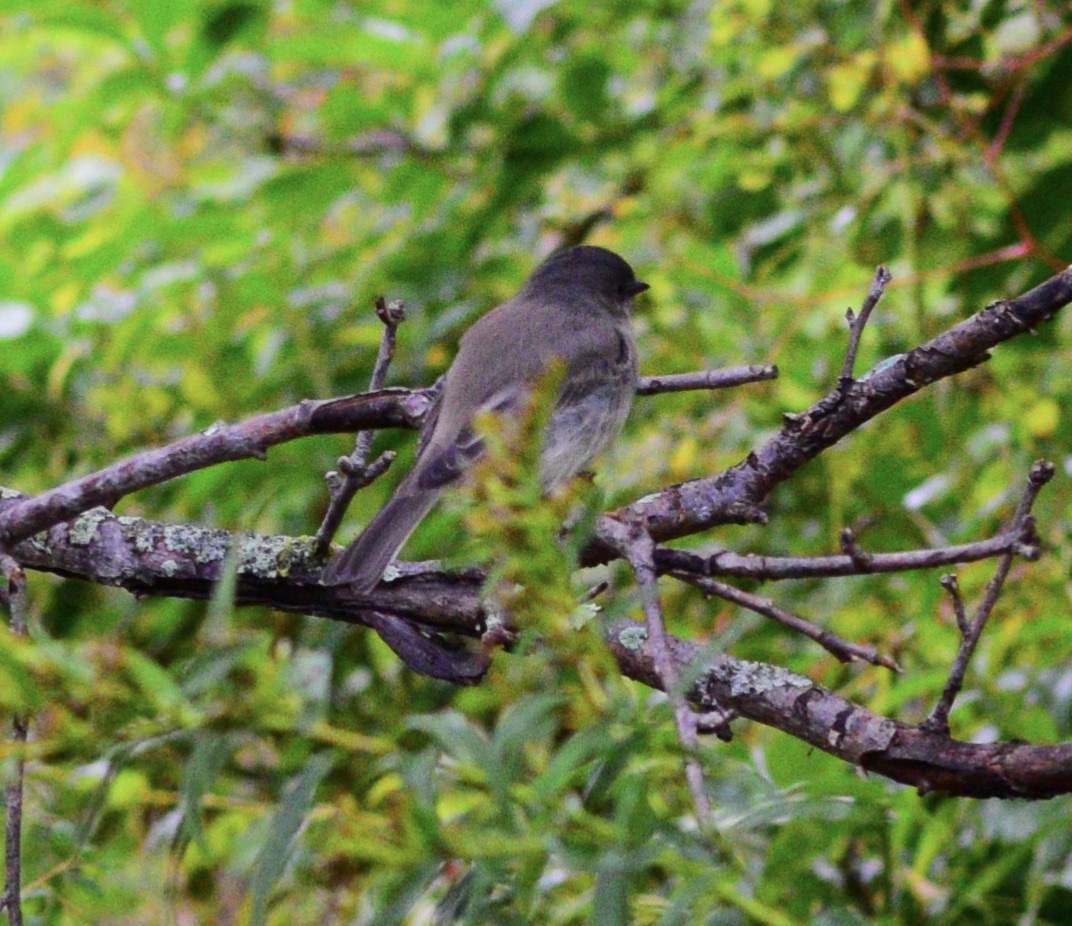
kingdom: Animalia
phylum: Chordata
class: Aves
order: Passeriformes
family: Tyrannidae
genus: Sayornis
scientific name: Sayornis phoebe
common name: Eastern phoebe
